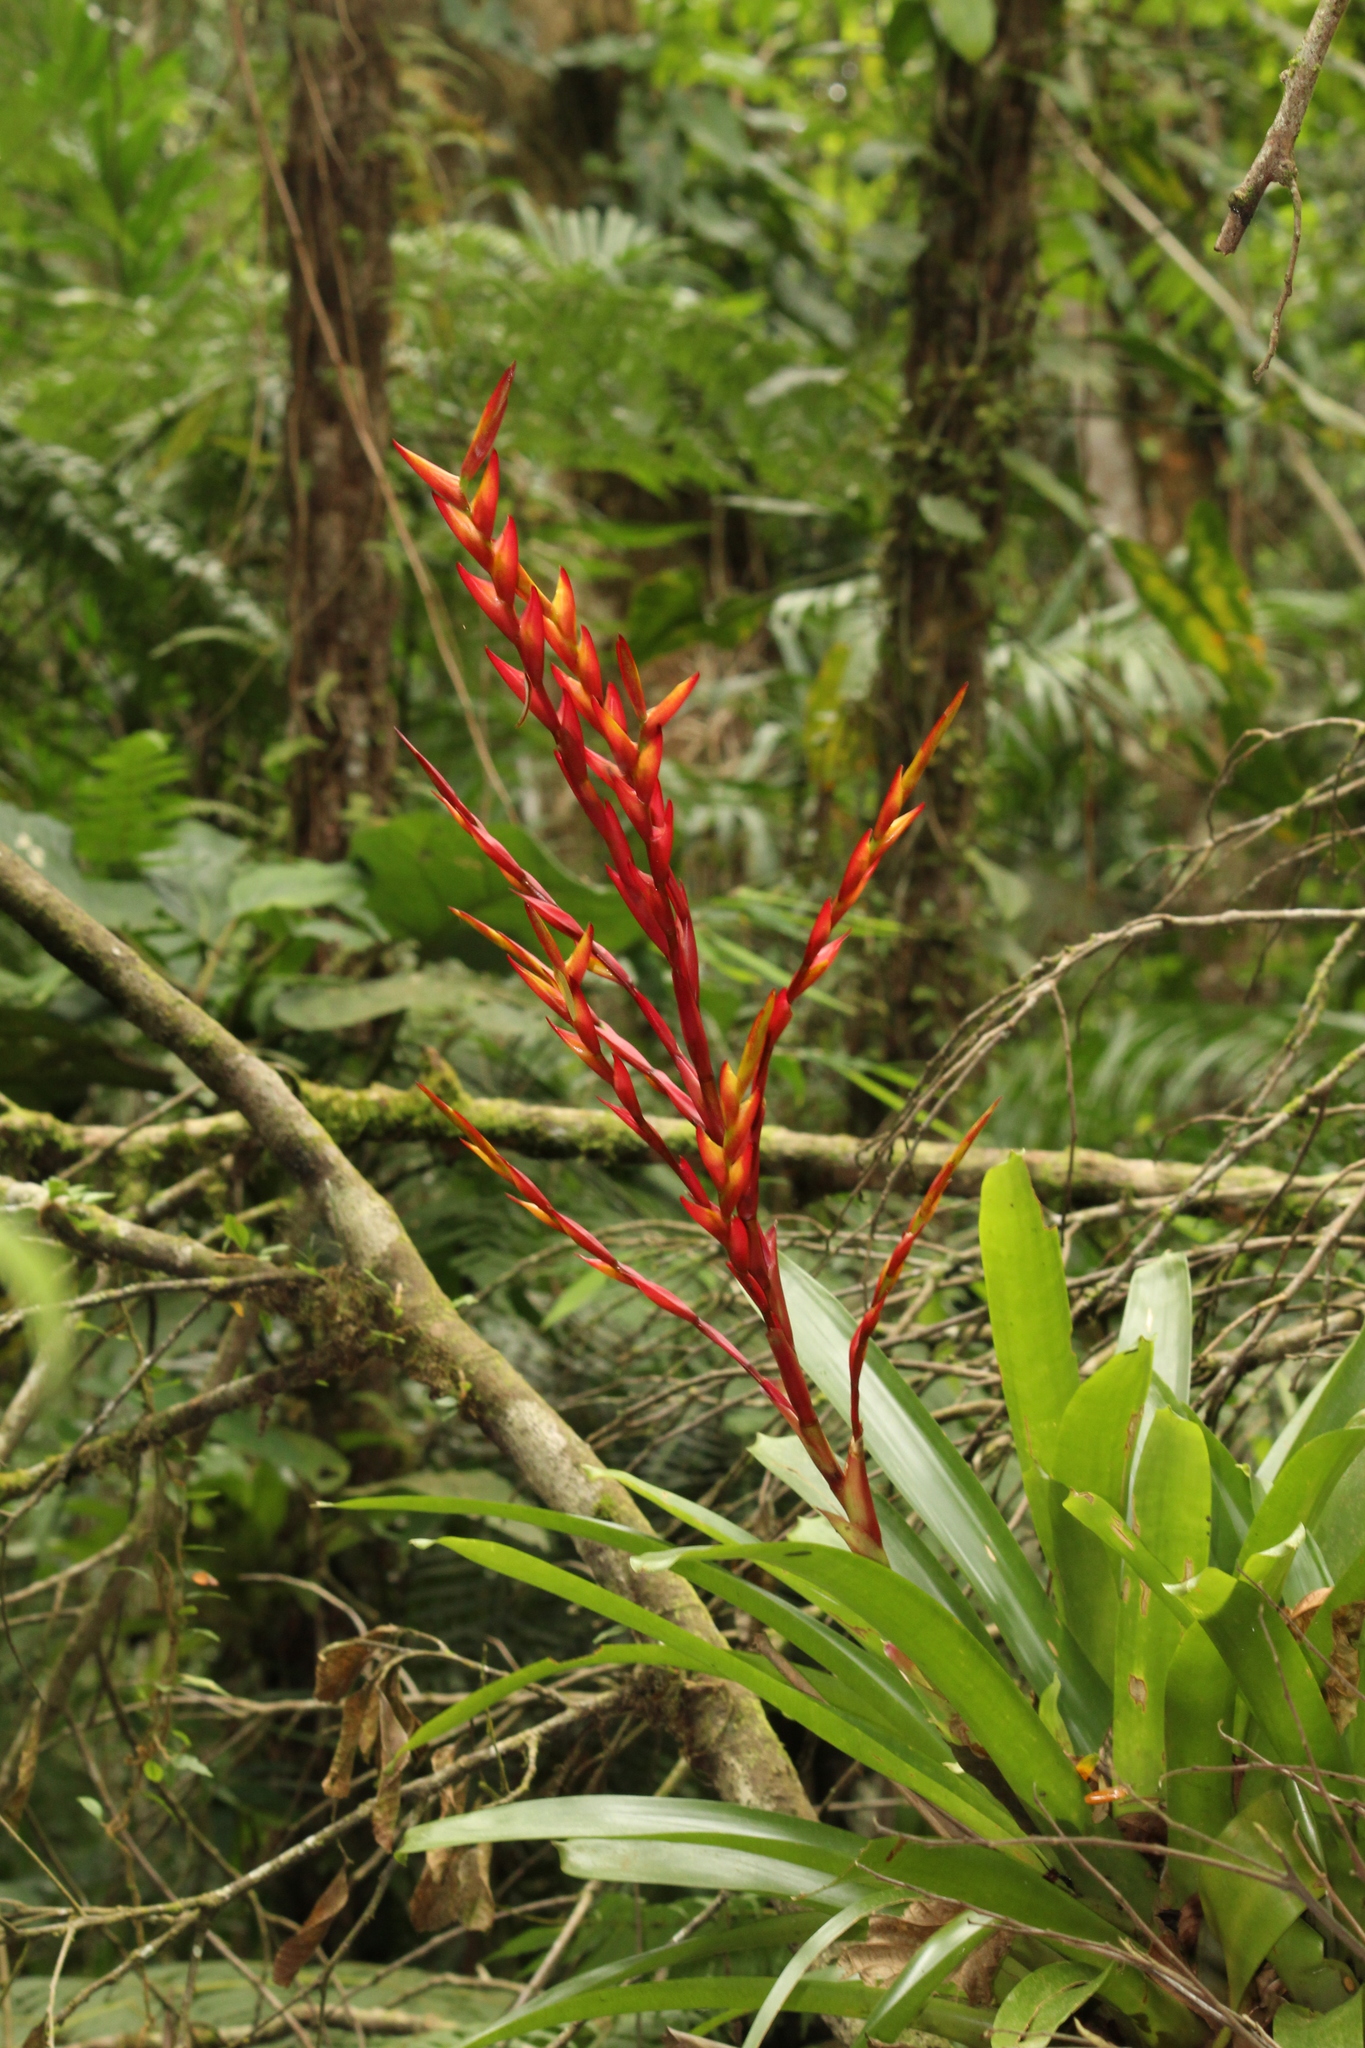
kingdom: Plantae
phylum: Tracheophyta
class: Liliopsida
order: Poales
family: Bromeliaceae
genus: Vriesea
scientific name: Vriesea brusquensis
